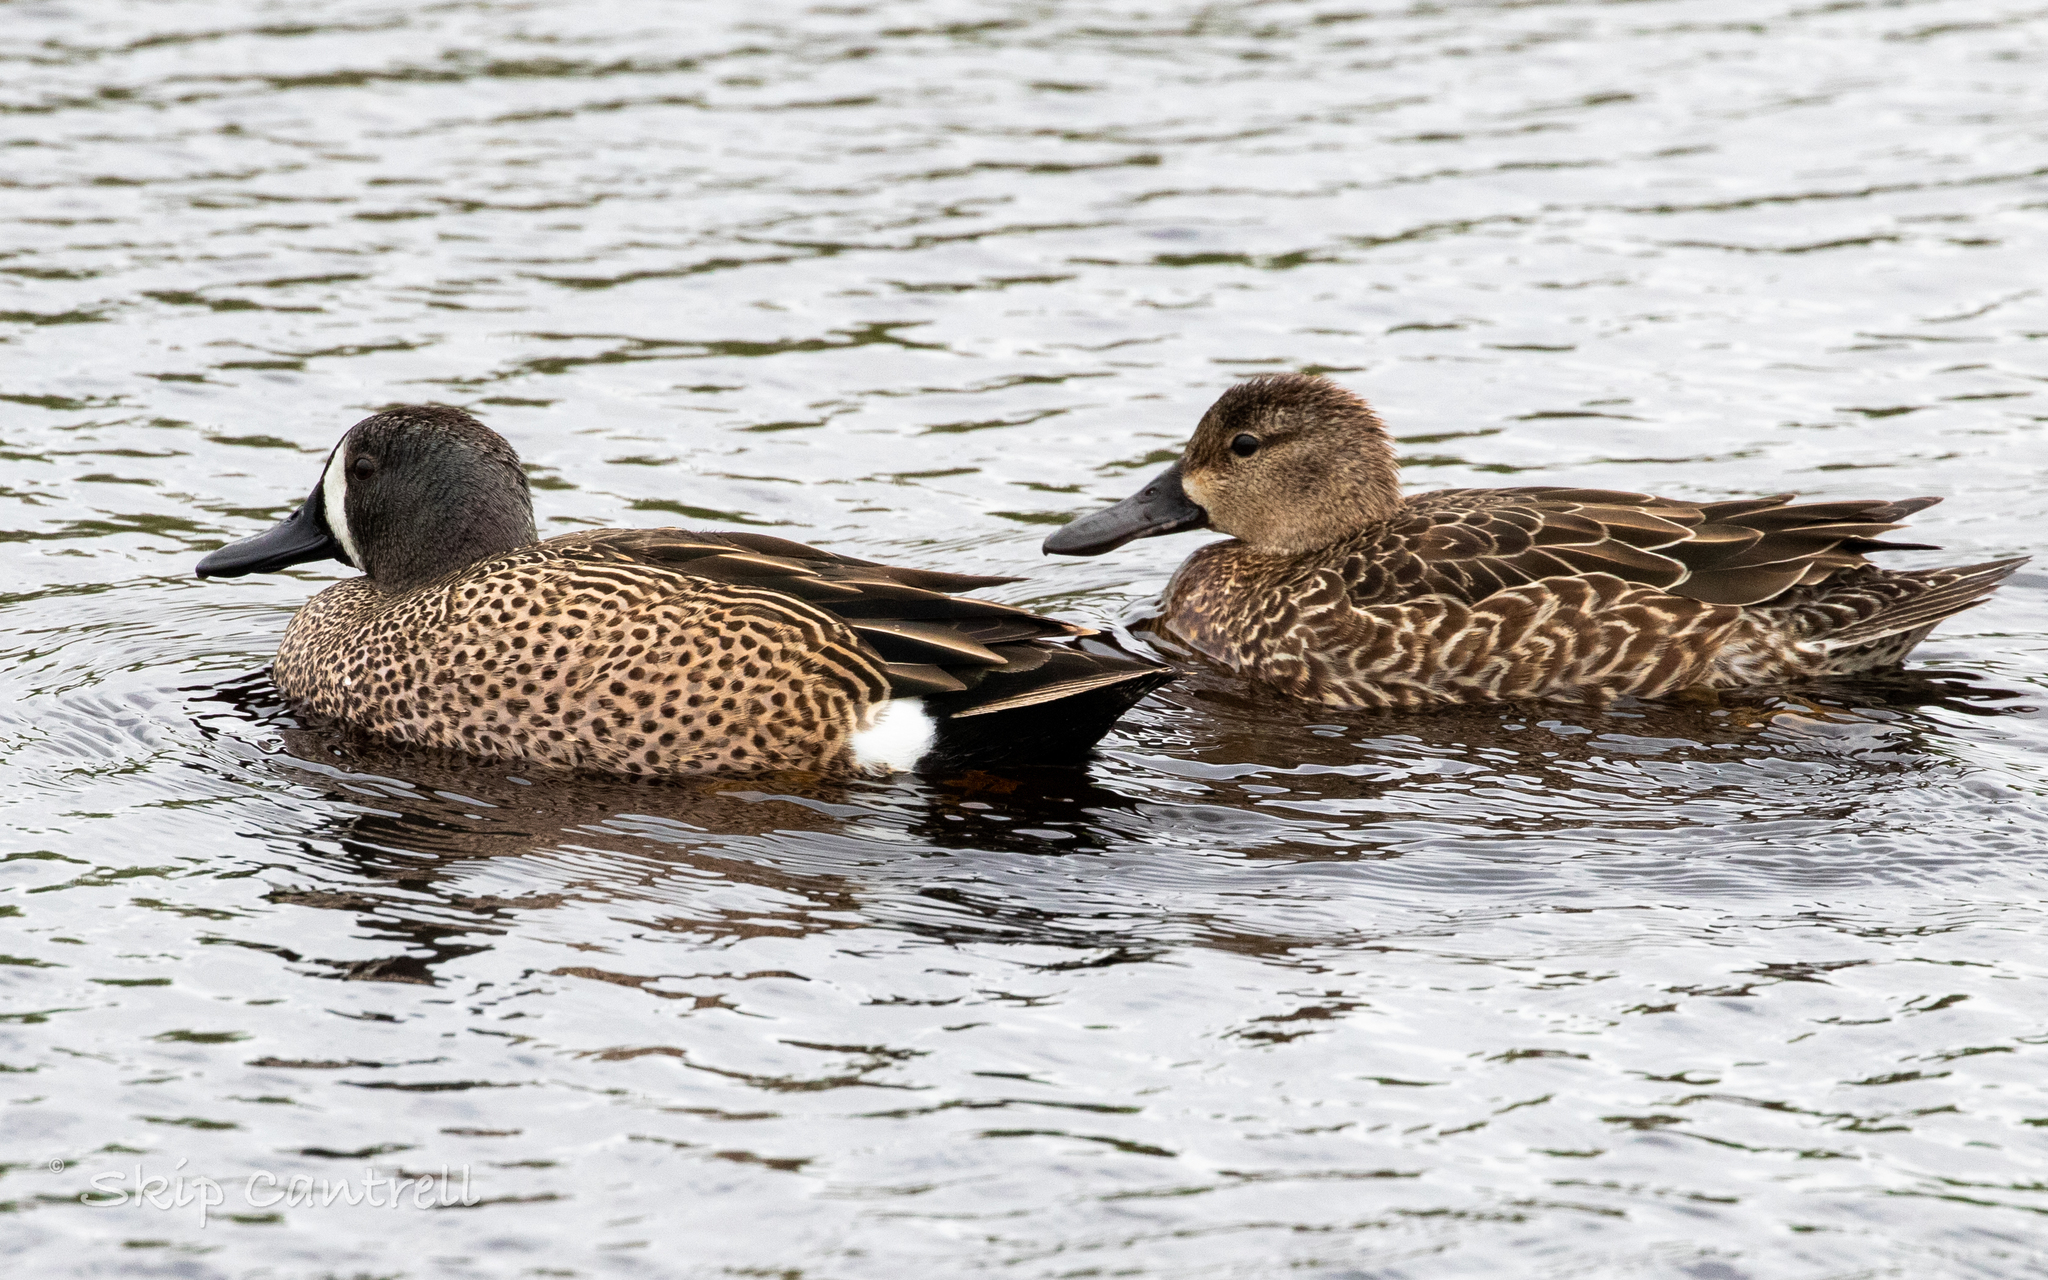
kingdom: Animalia
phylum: Chordata
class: Aves
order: Anseriformes
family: Anatidae
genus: Spatula
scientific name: Spatula discors
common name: Blue-winged teal
